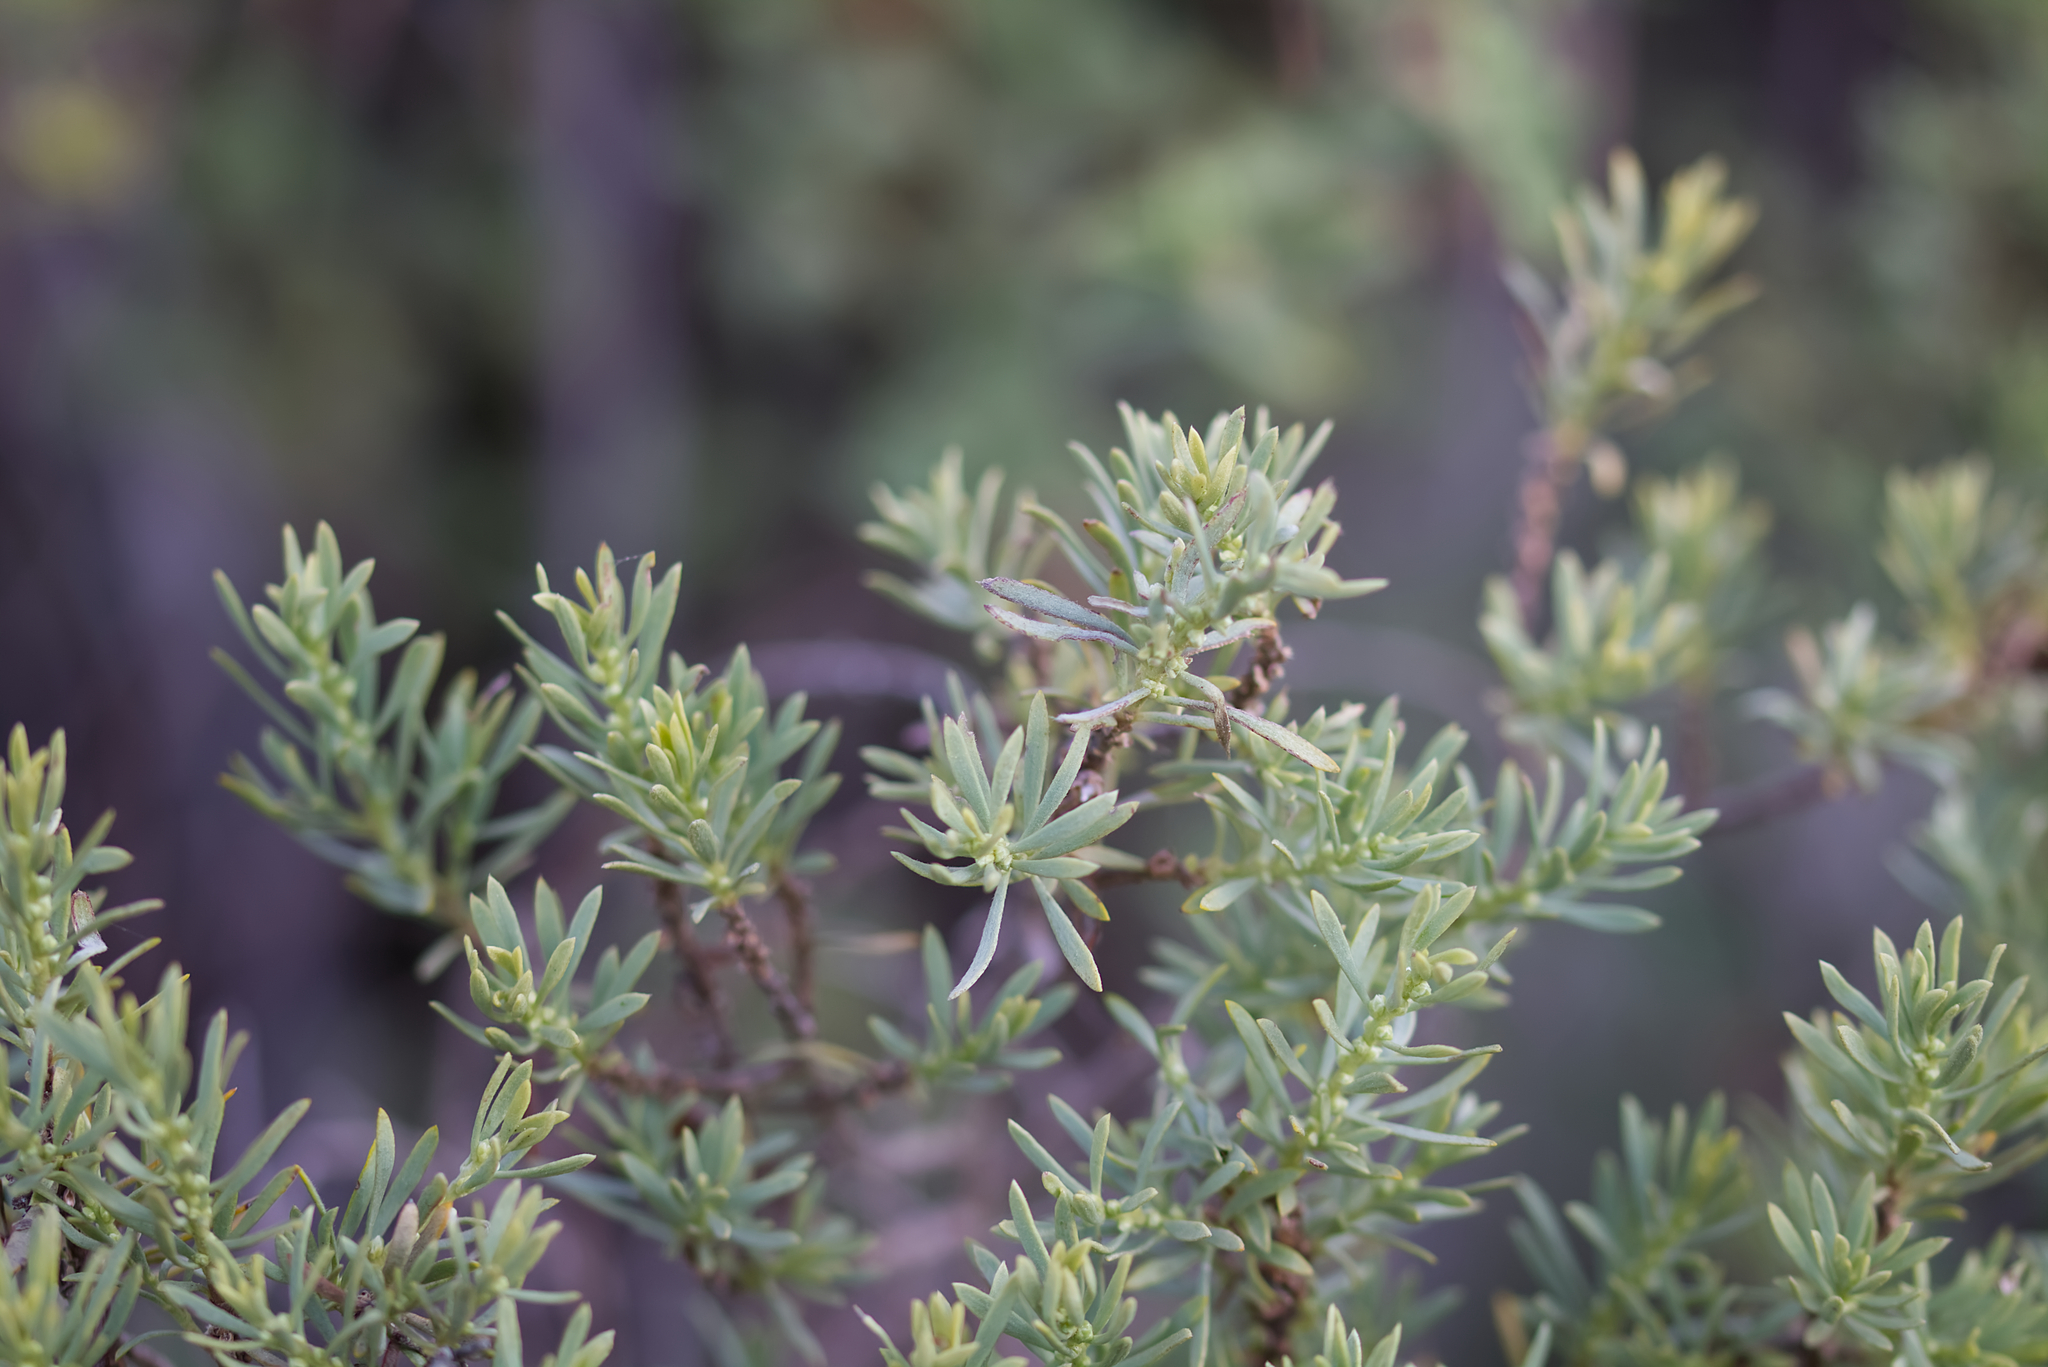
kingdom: Plantae
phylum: Tracheophyta
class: Magnoliopsida
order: Malvales
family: Thymelaeaceae
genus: Thymelaea
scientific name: Thymelaea tartonraira
